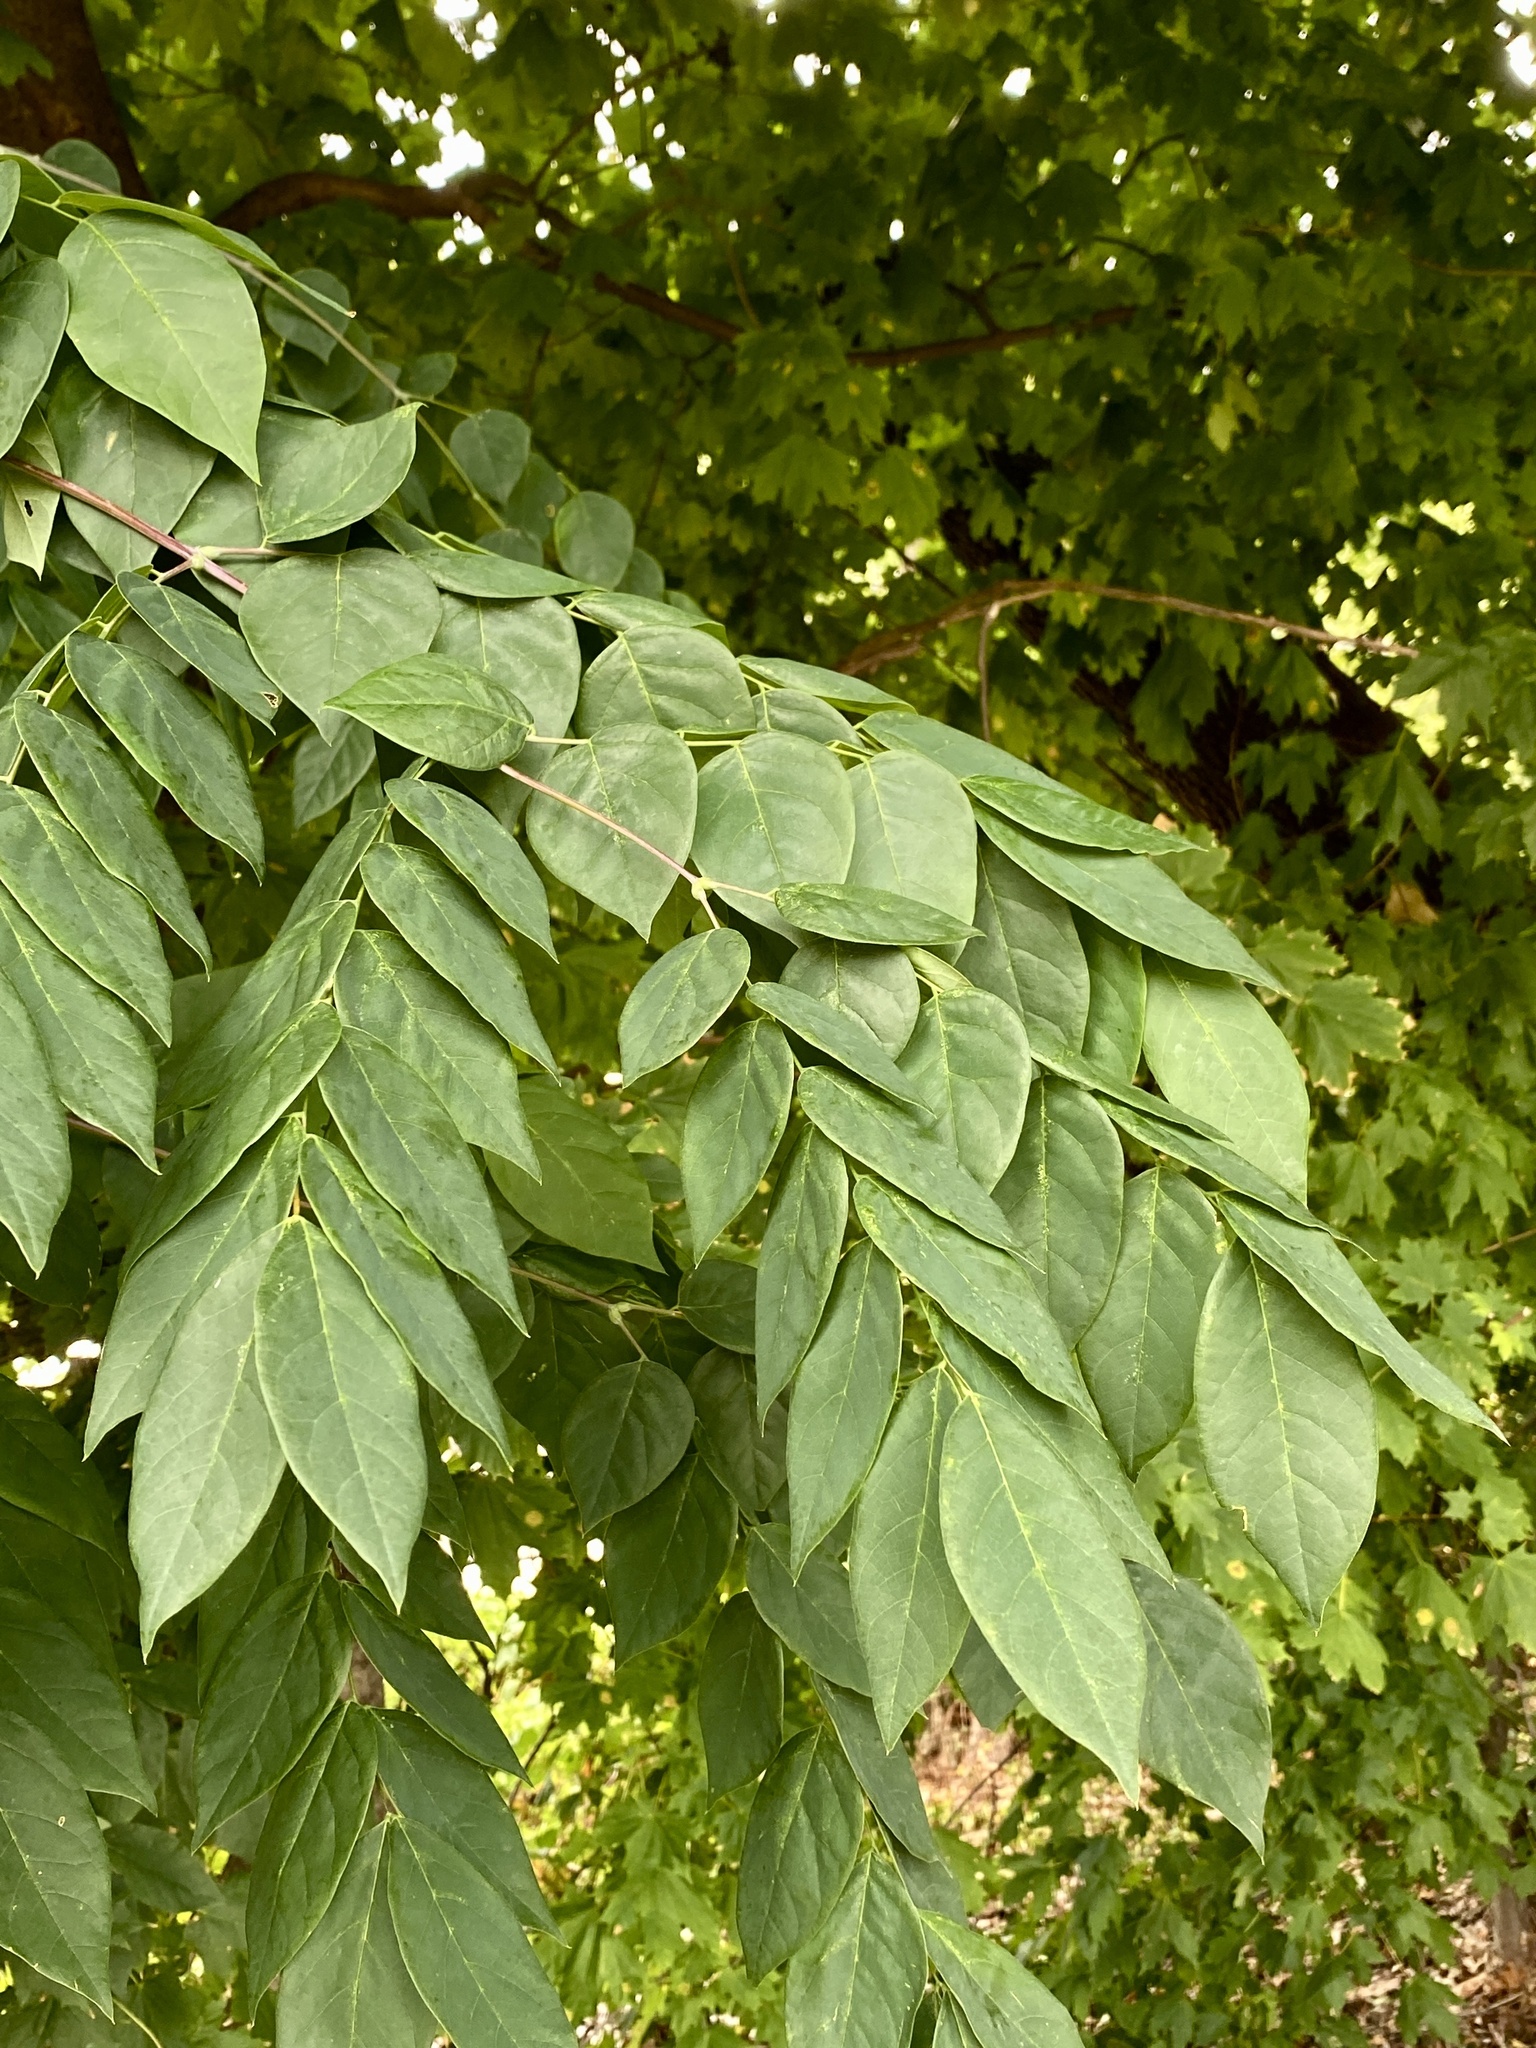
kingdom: Plantae
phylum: Tracheophyta
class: Magnoliopsida
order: Fabales
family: Fabaceae
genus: Gymnocladus
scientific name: Gymnocladus dioicus
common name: Kentucky coffee-tree
